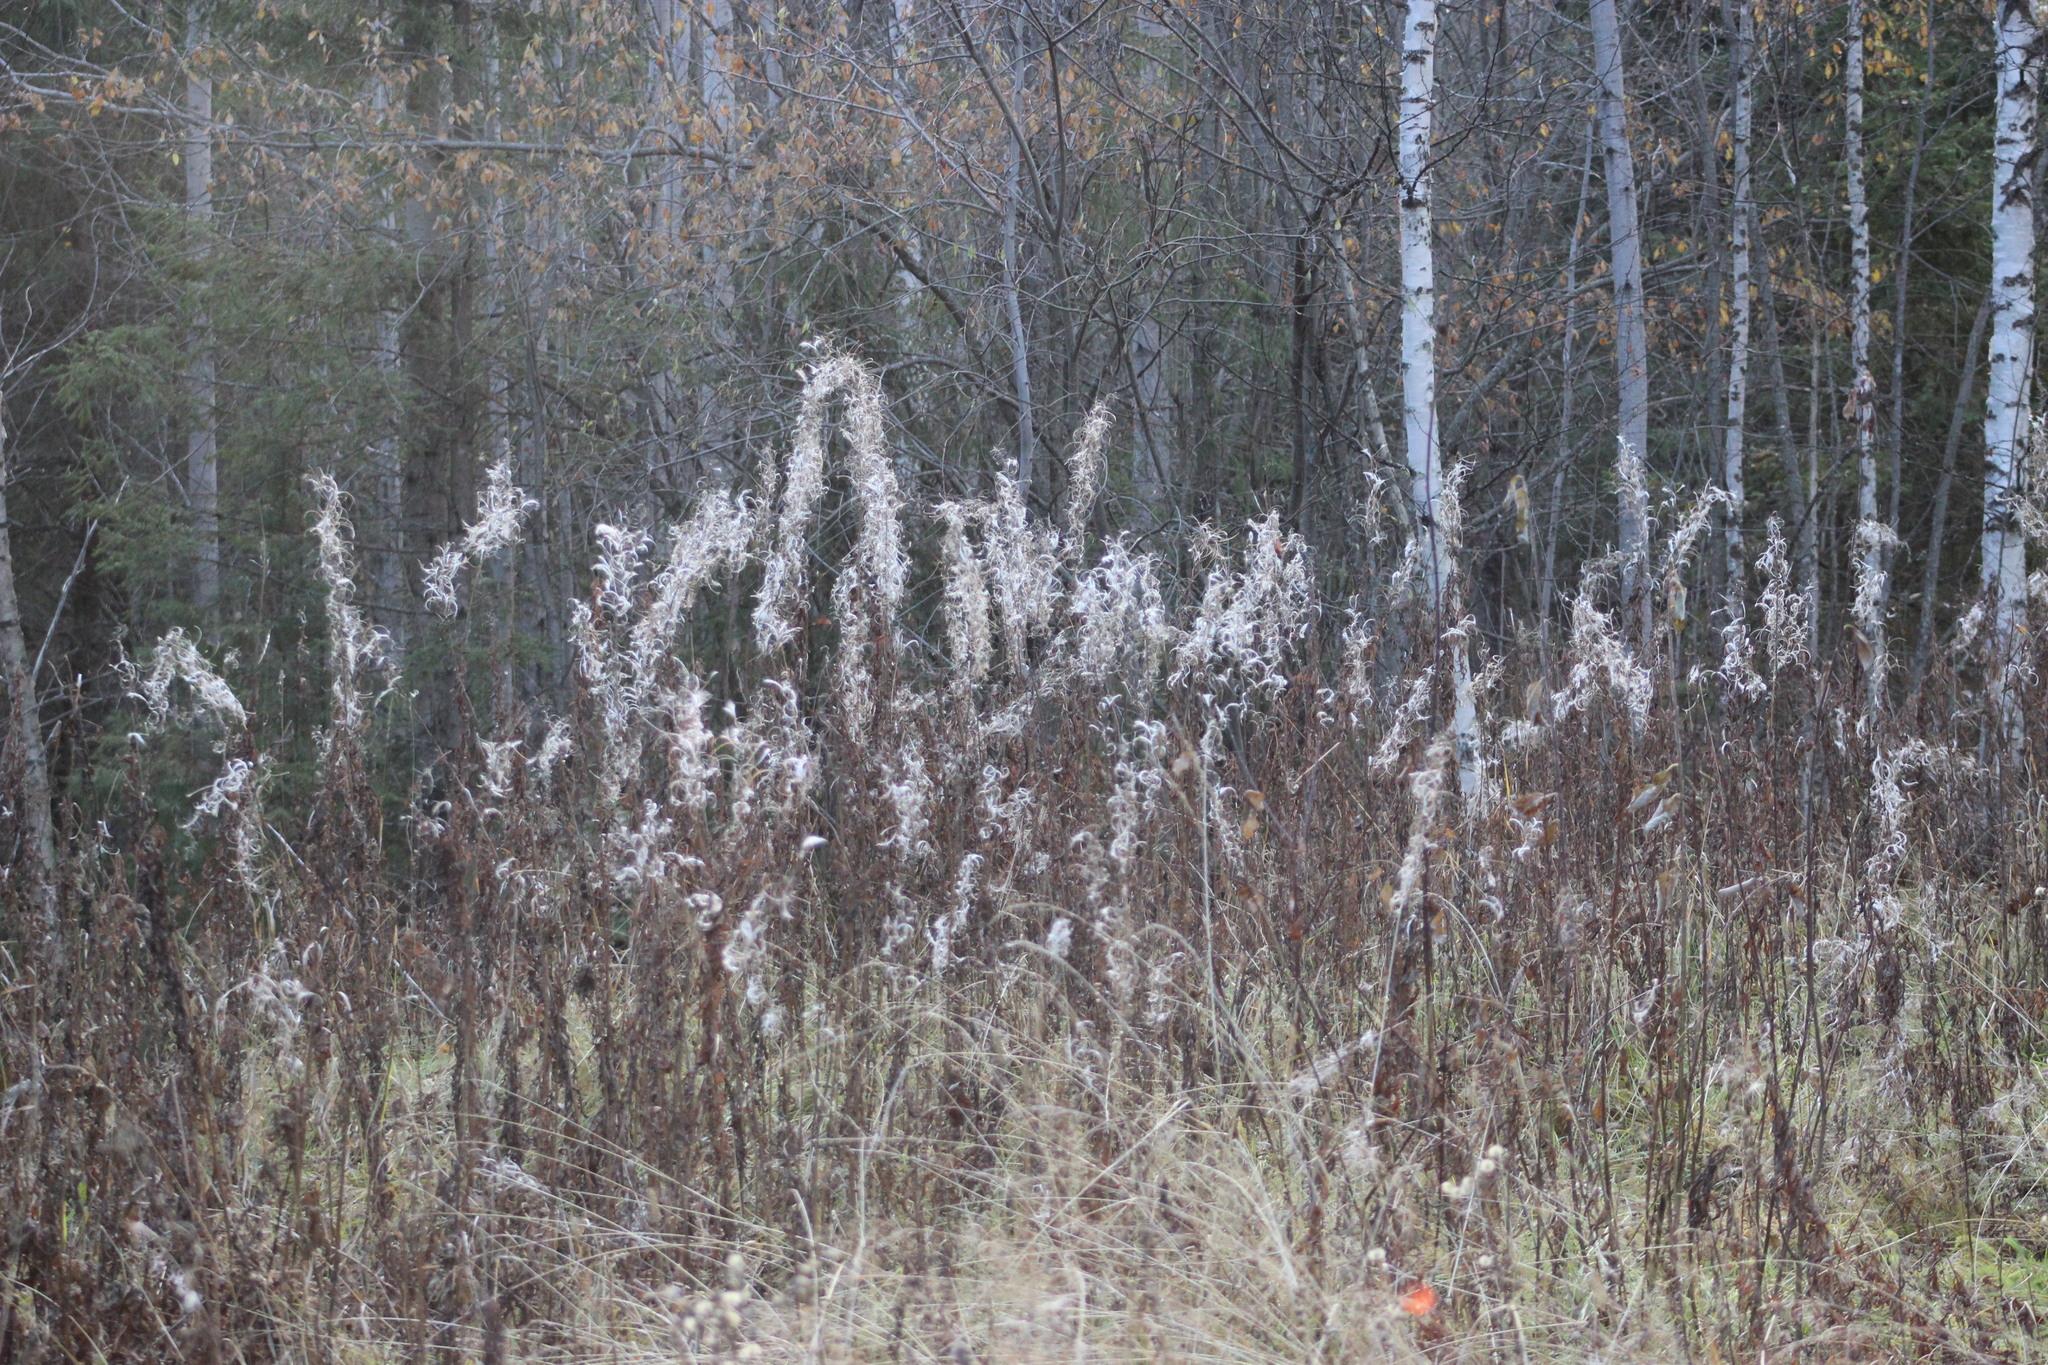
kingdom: Plantae
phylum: Tracheophyta
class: Magnoliopsida
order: Myrtales
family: Onagraceae
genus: Chamaenerion
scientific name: Chamaenerion angustifolium
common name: Fireweed
